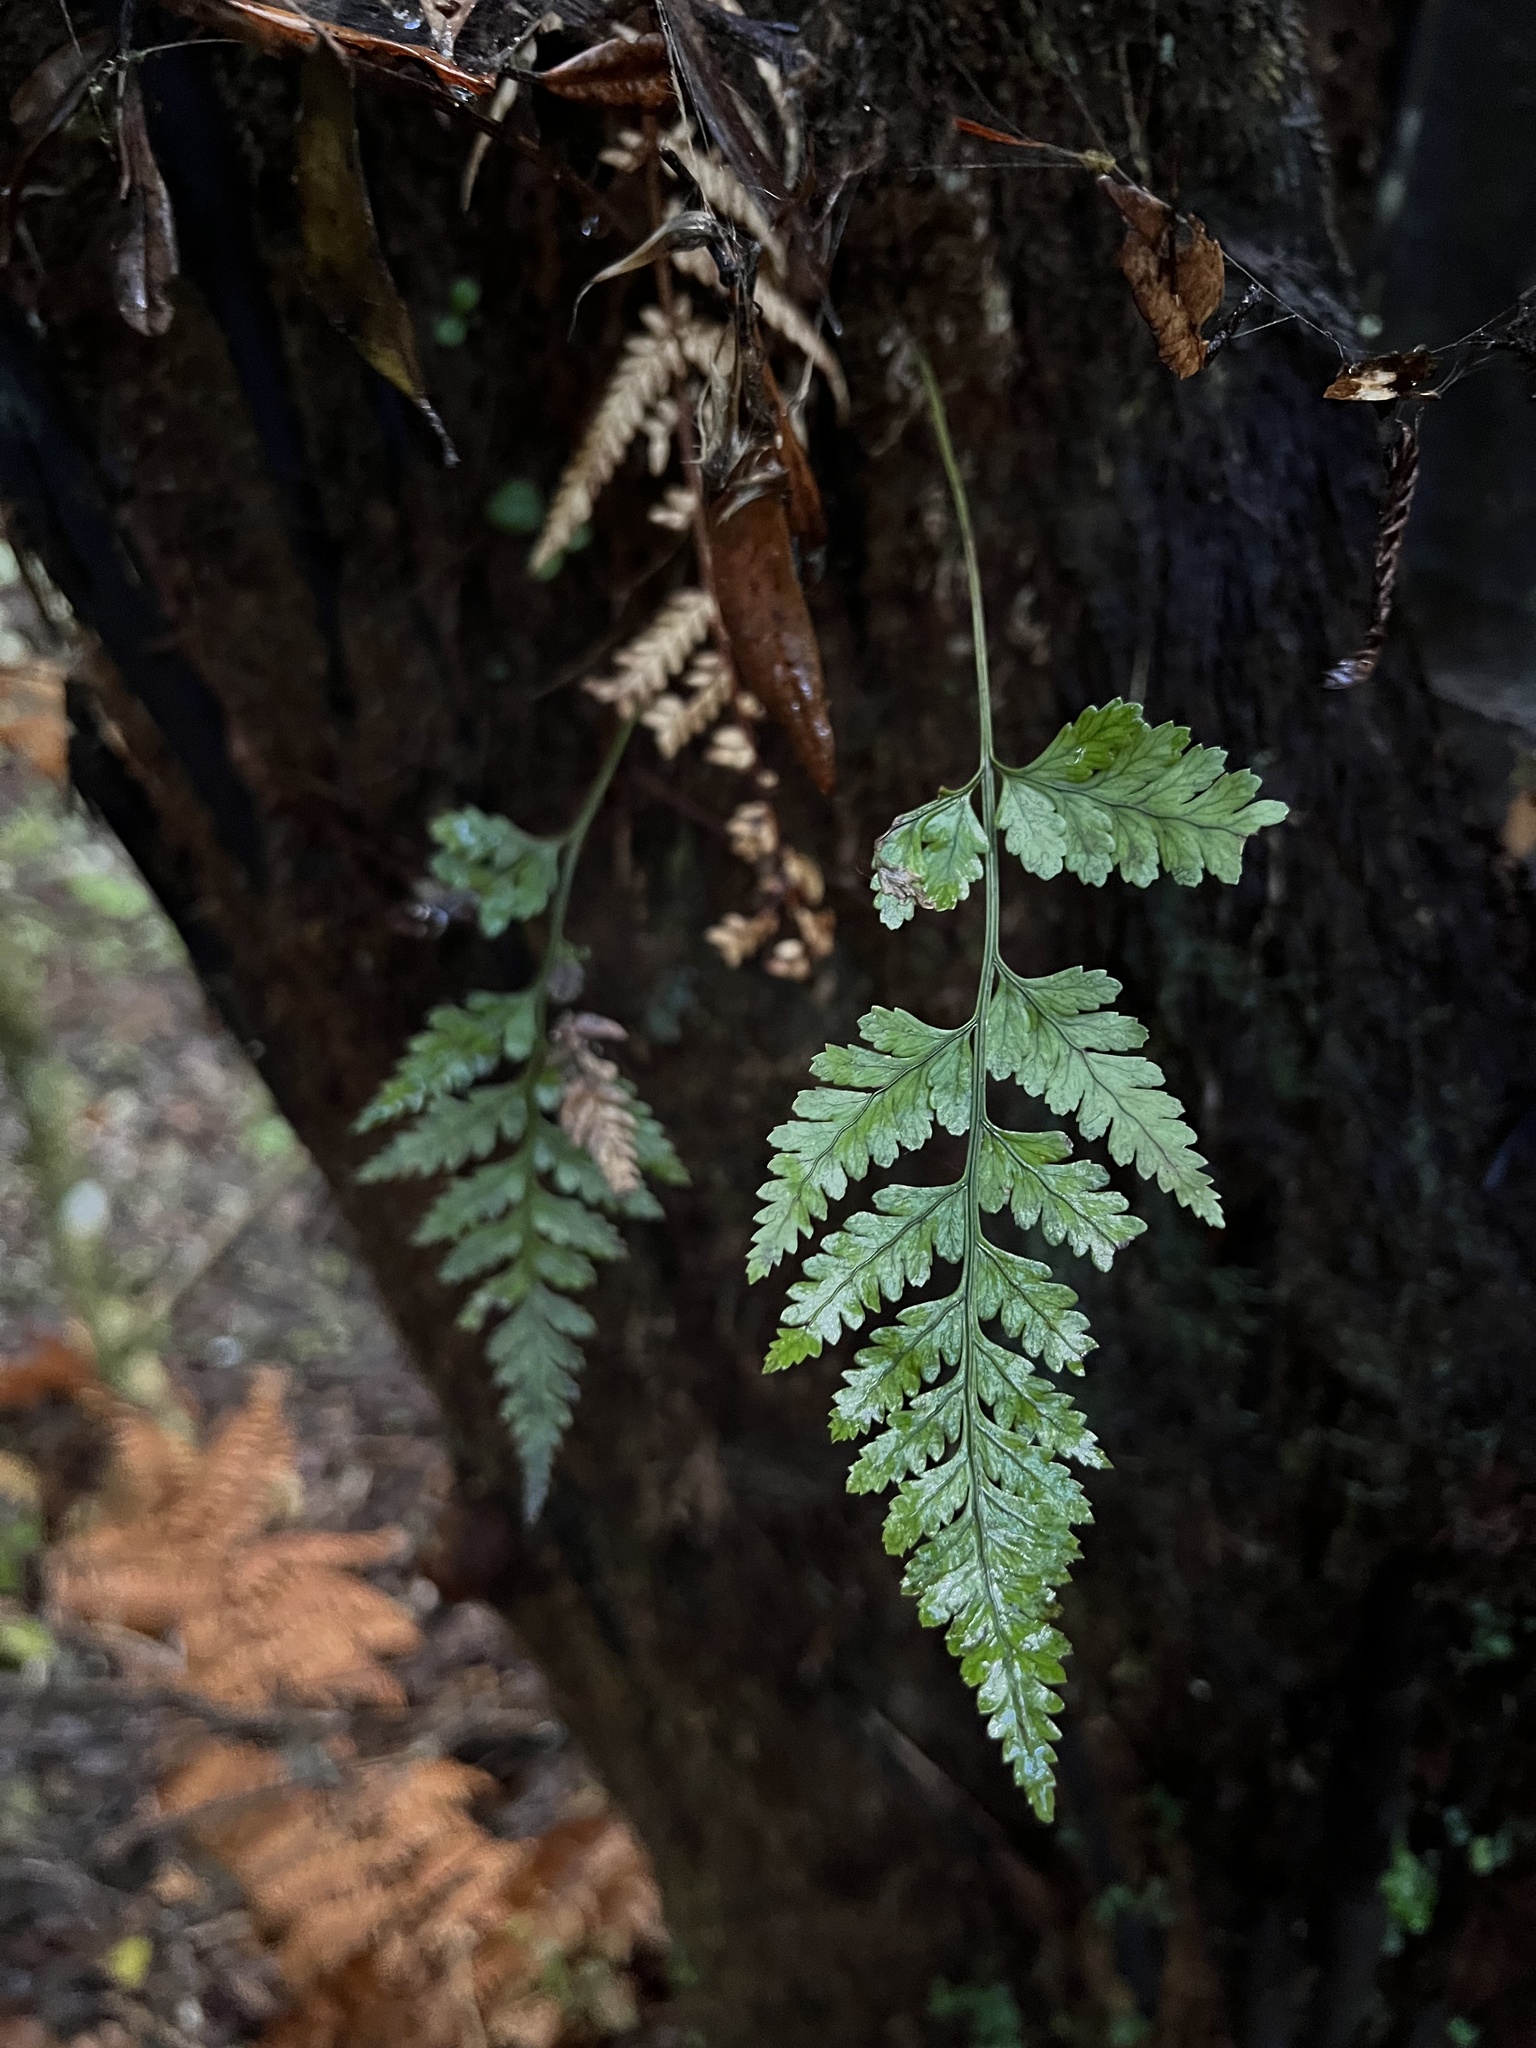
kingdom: Plantae
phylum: Tracheophyta
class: Polypodiopsida
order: Polypodiales
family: Dryopteridaceae
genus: Rumohra
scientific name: Rumohra adiantiformis
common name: Leather fern
